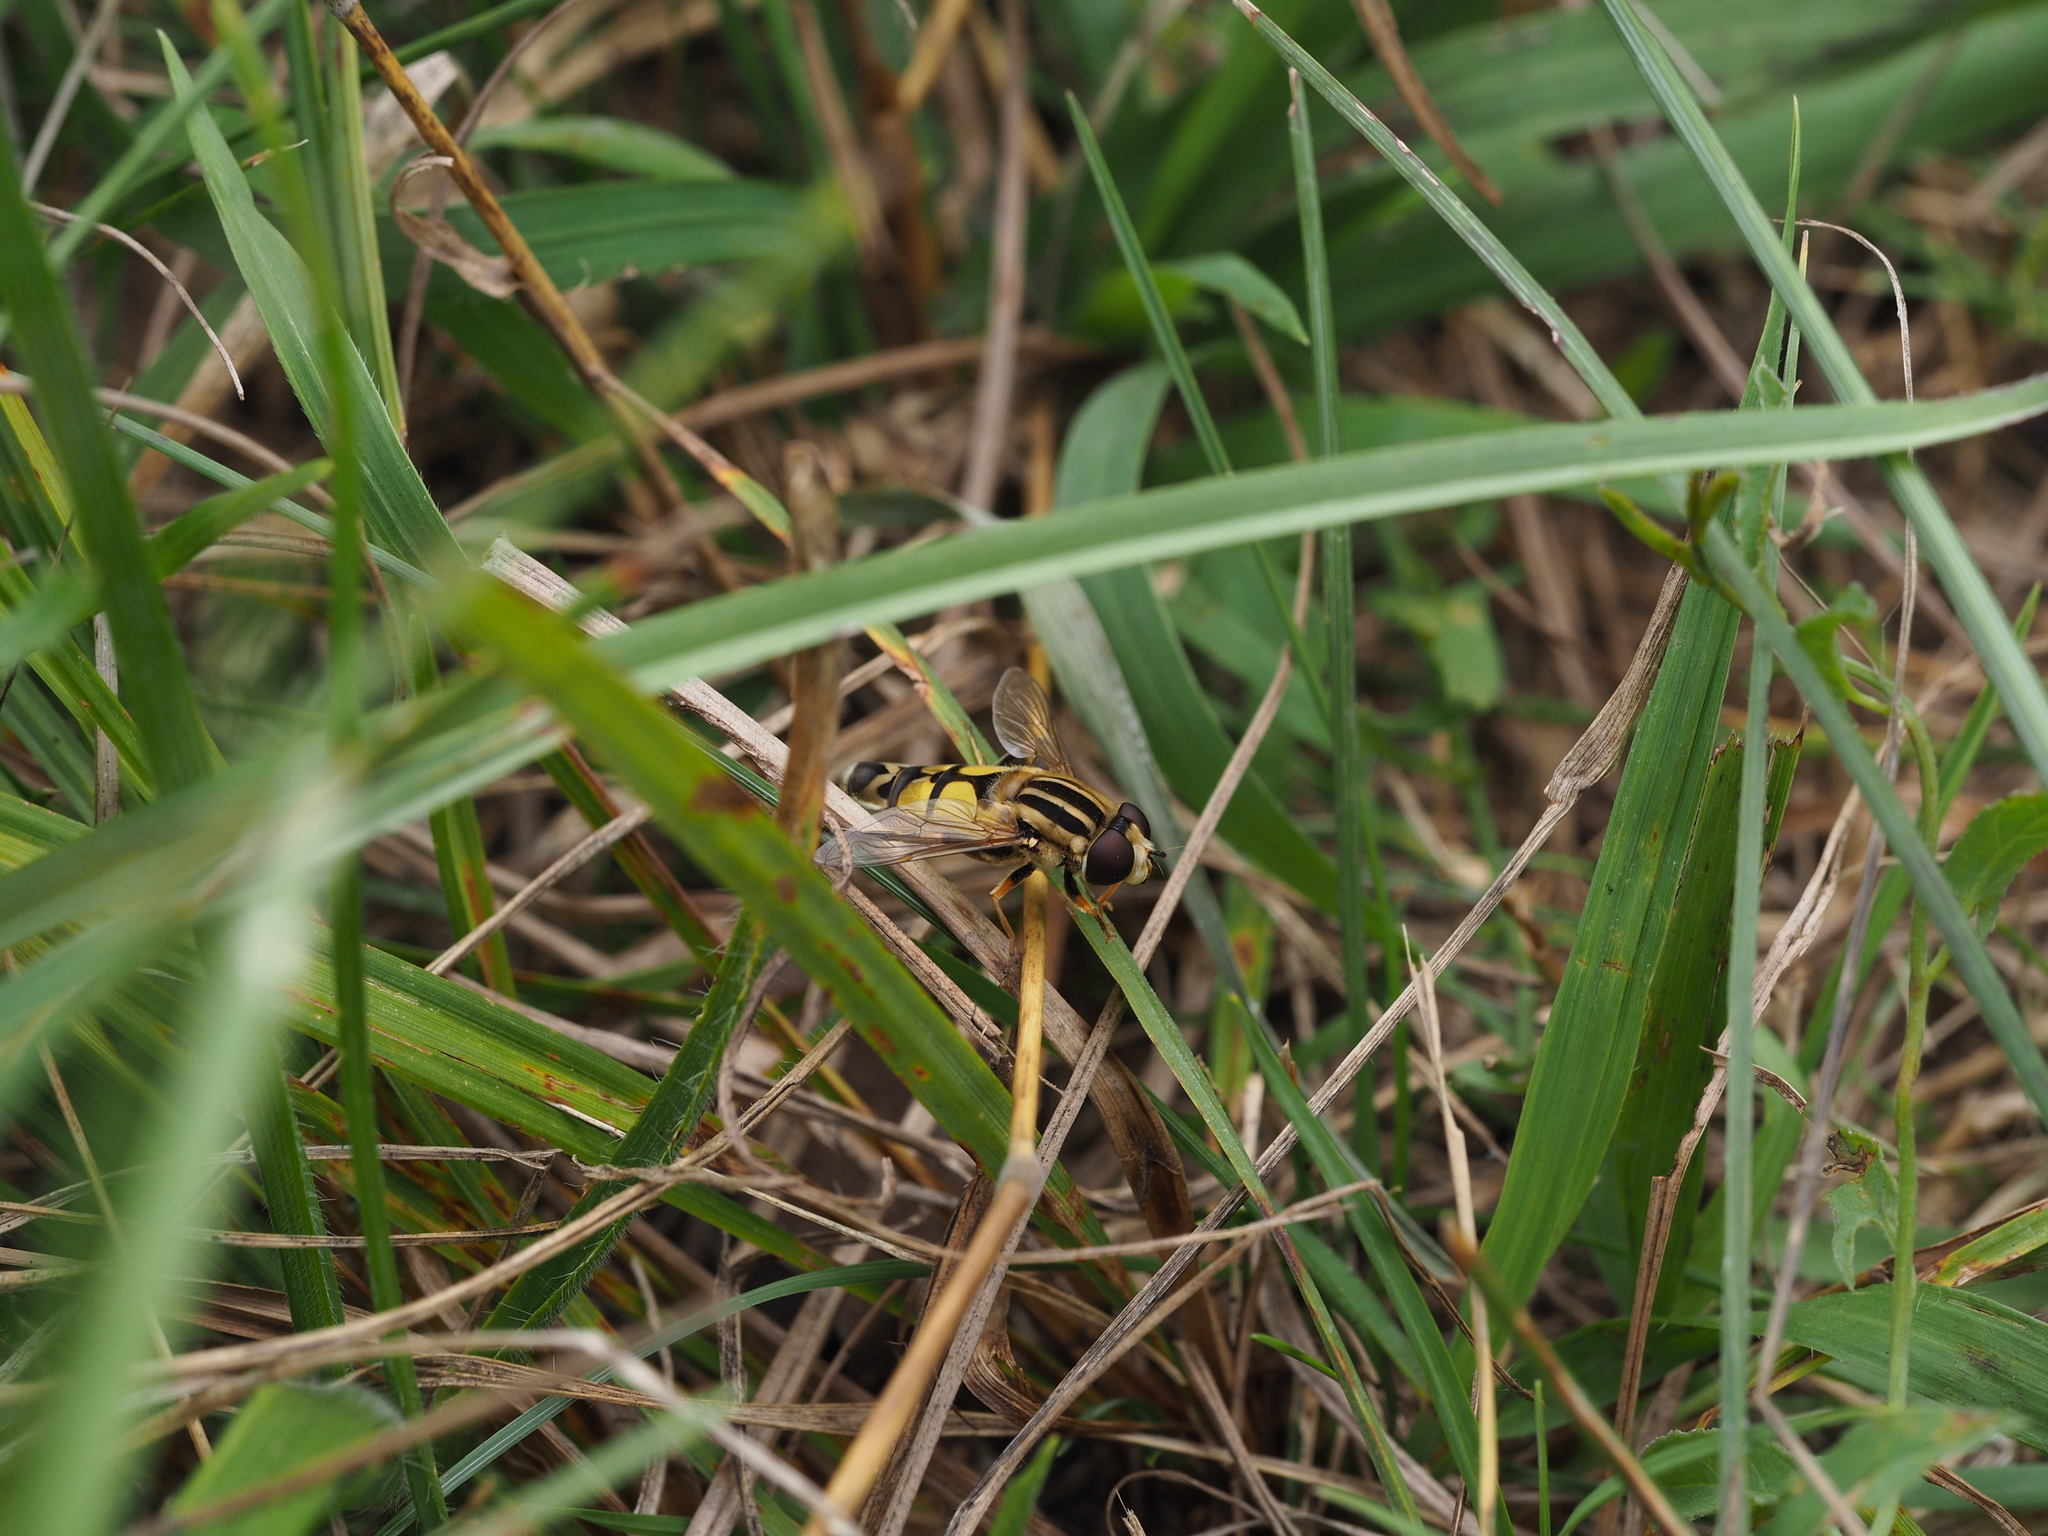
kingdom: Animalia
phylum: Arthropoda
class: Insecta
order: Diptera
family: Syrphidae
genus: Helophilus
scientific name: Helophilus trivittatus
